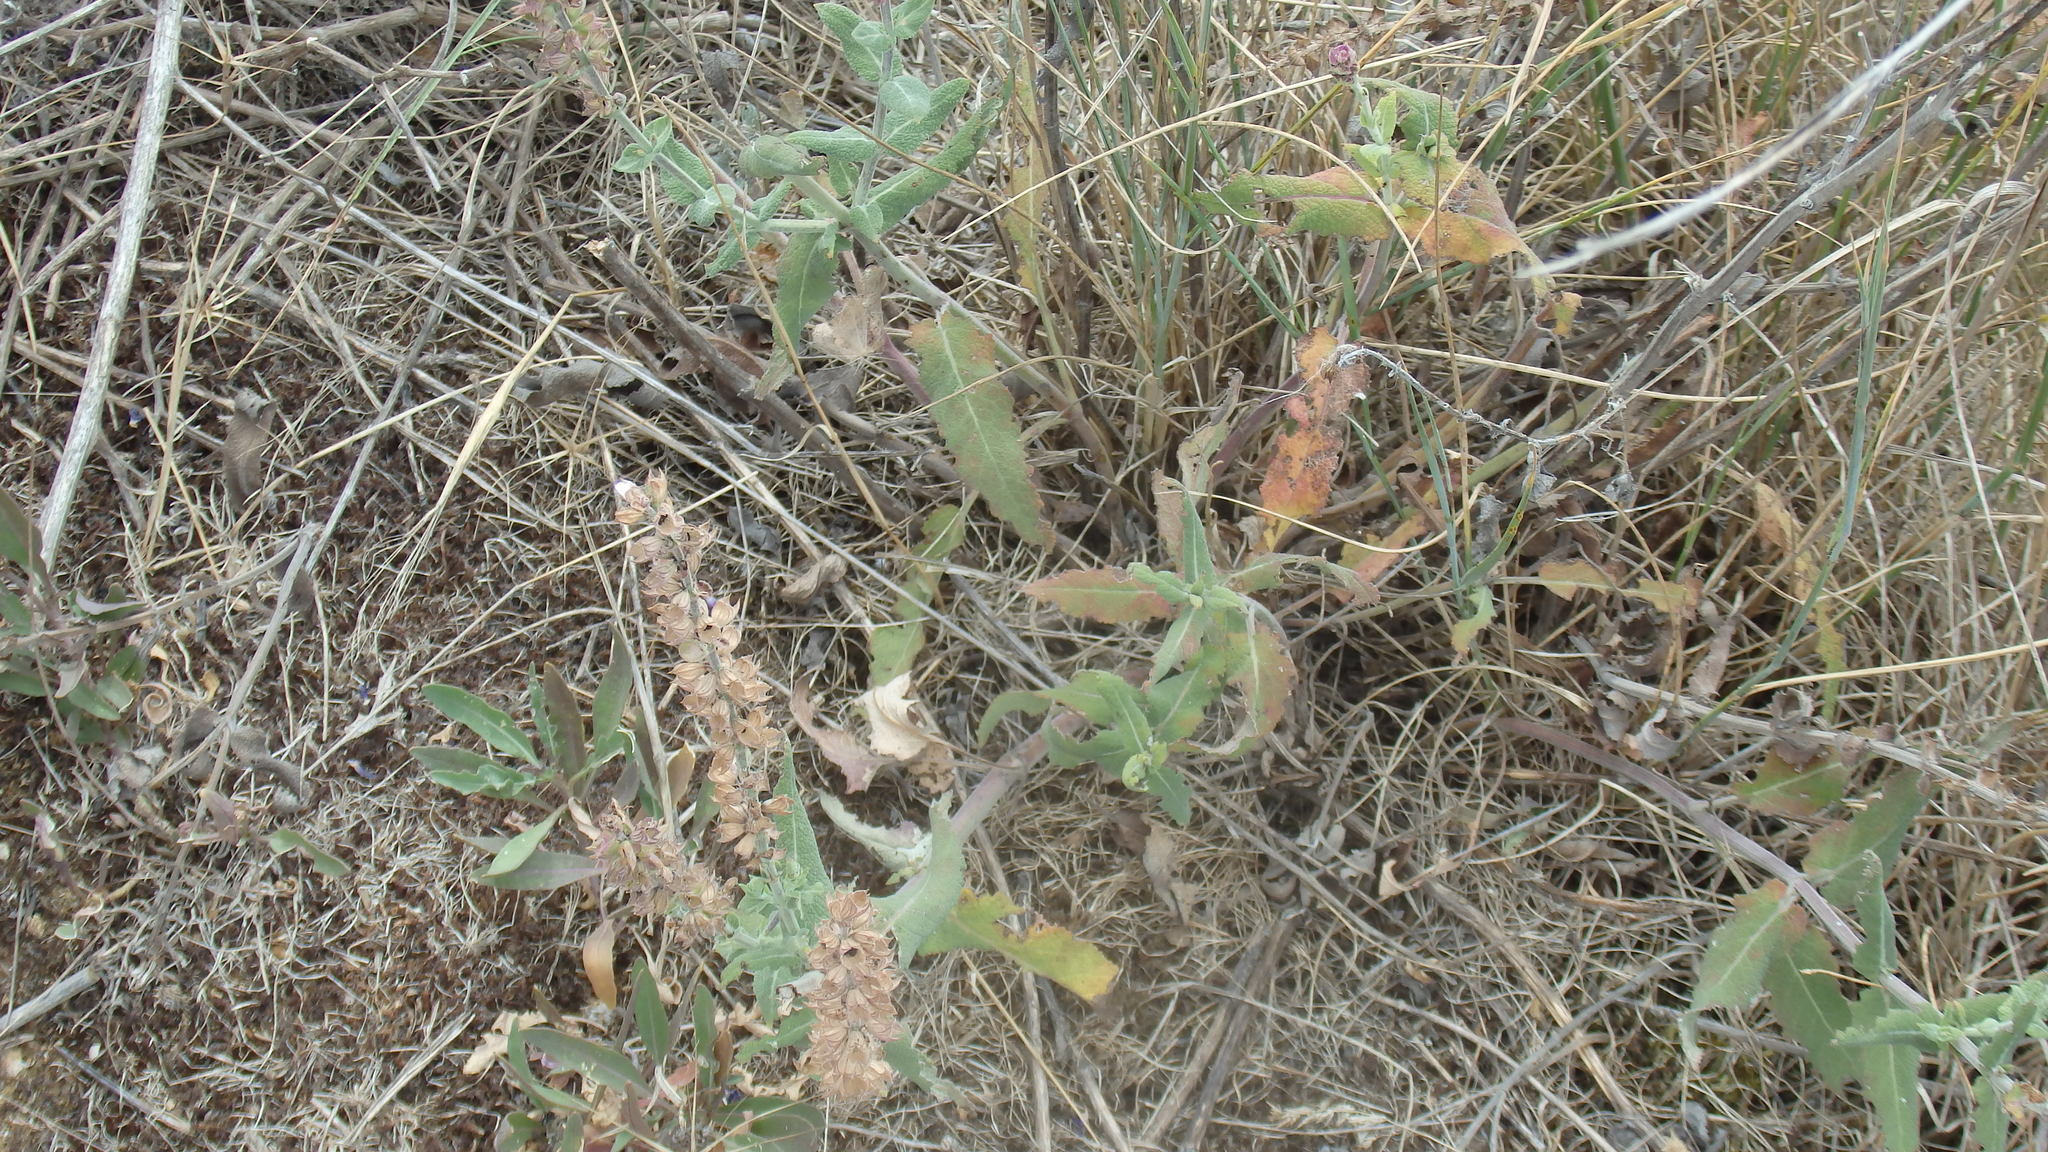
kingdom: Plantae
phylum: Tracheophyta
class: Magnoliopsida
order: Lamiales
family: Lamiaceae
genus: Salvia
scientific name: Salvia nemorosa
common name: Balkan clary
